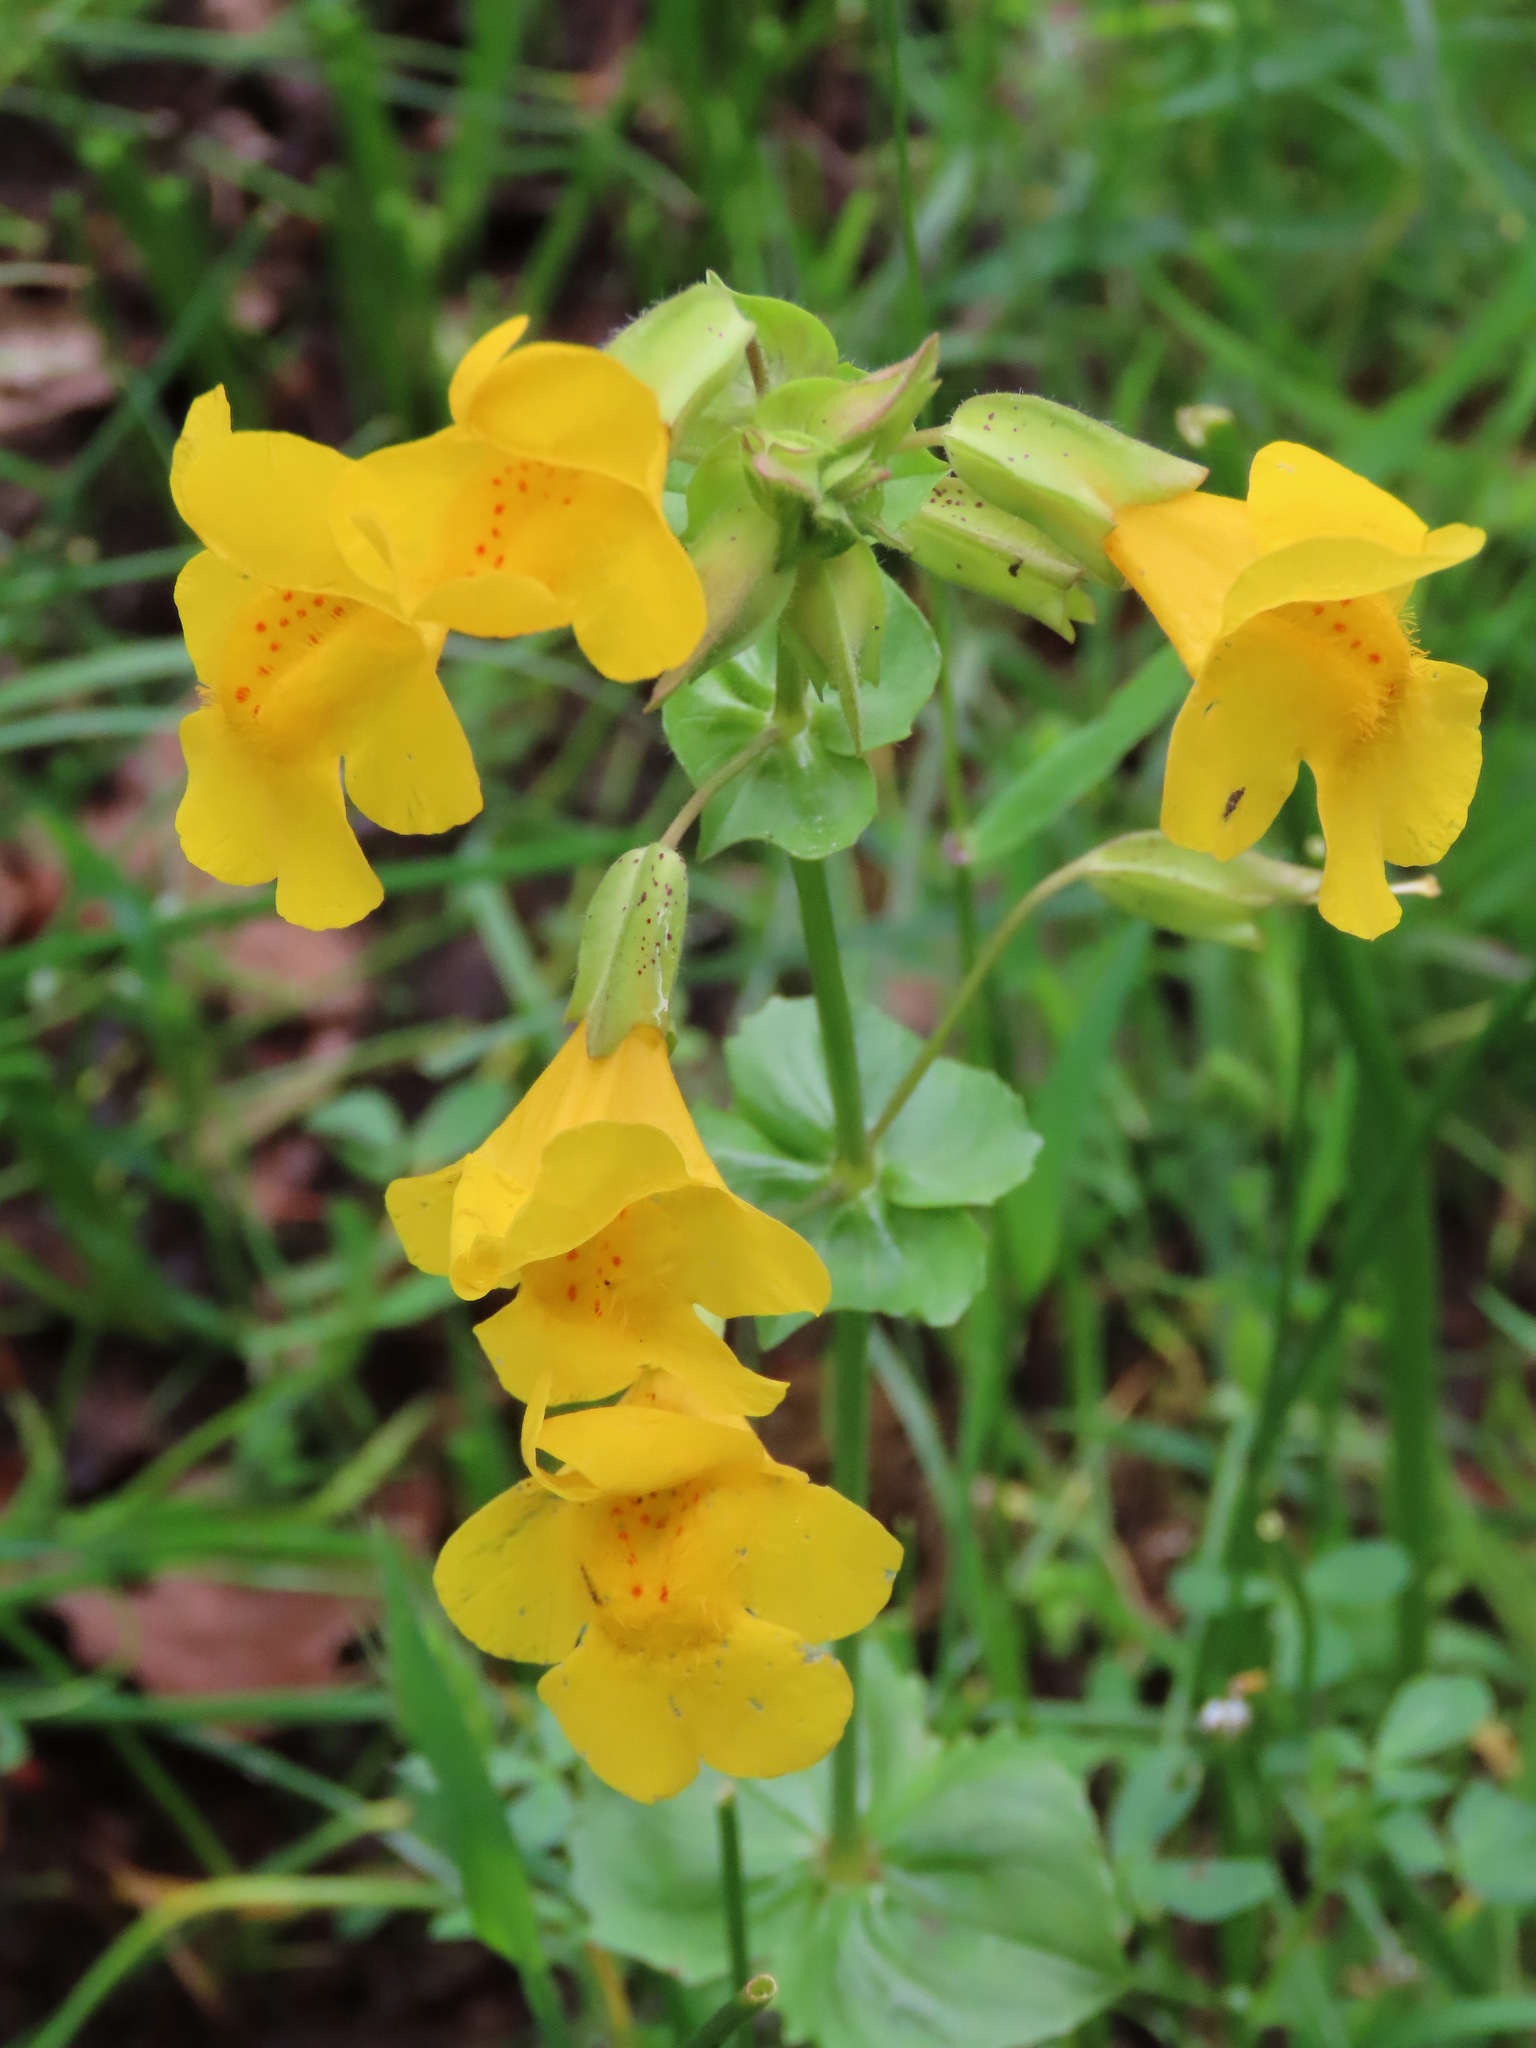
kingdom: Plantae
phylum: Tracheophyta
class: Magnoliopsida
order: Lamiales
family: Phrymaceae
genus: Erythranthe
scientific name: Erythranthe guttata
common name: Monkeyflower
